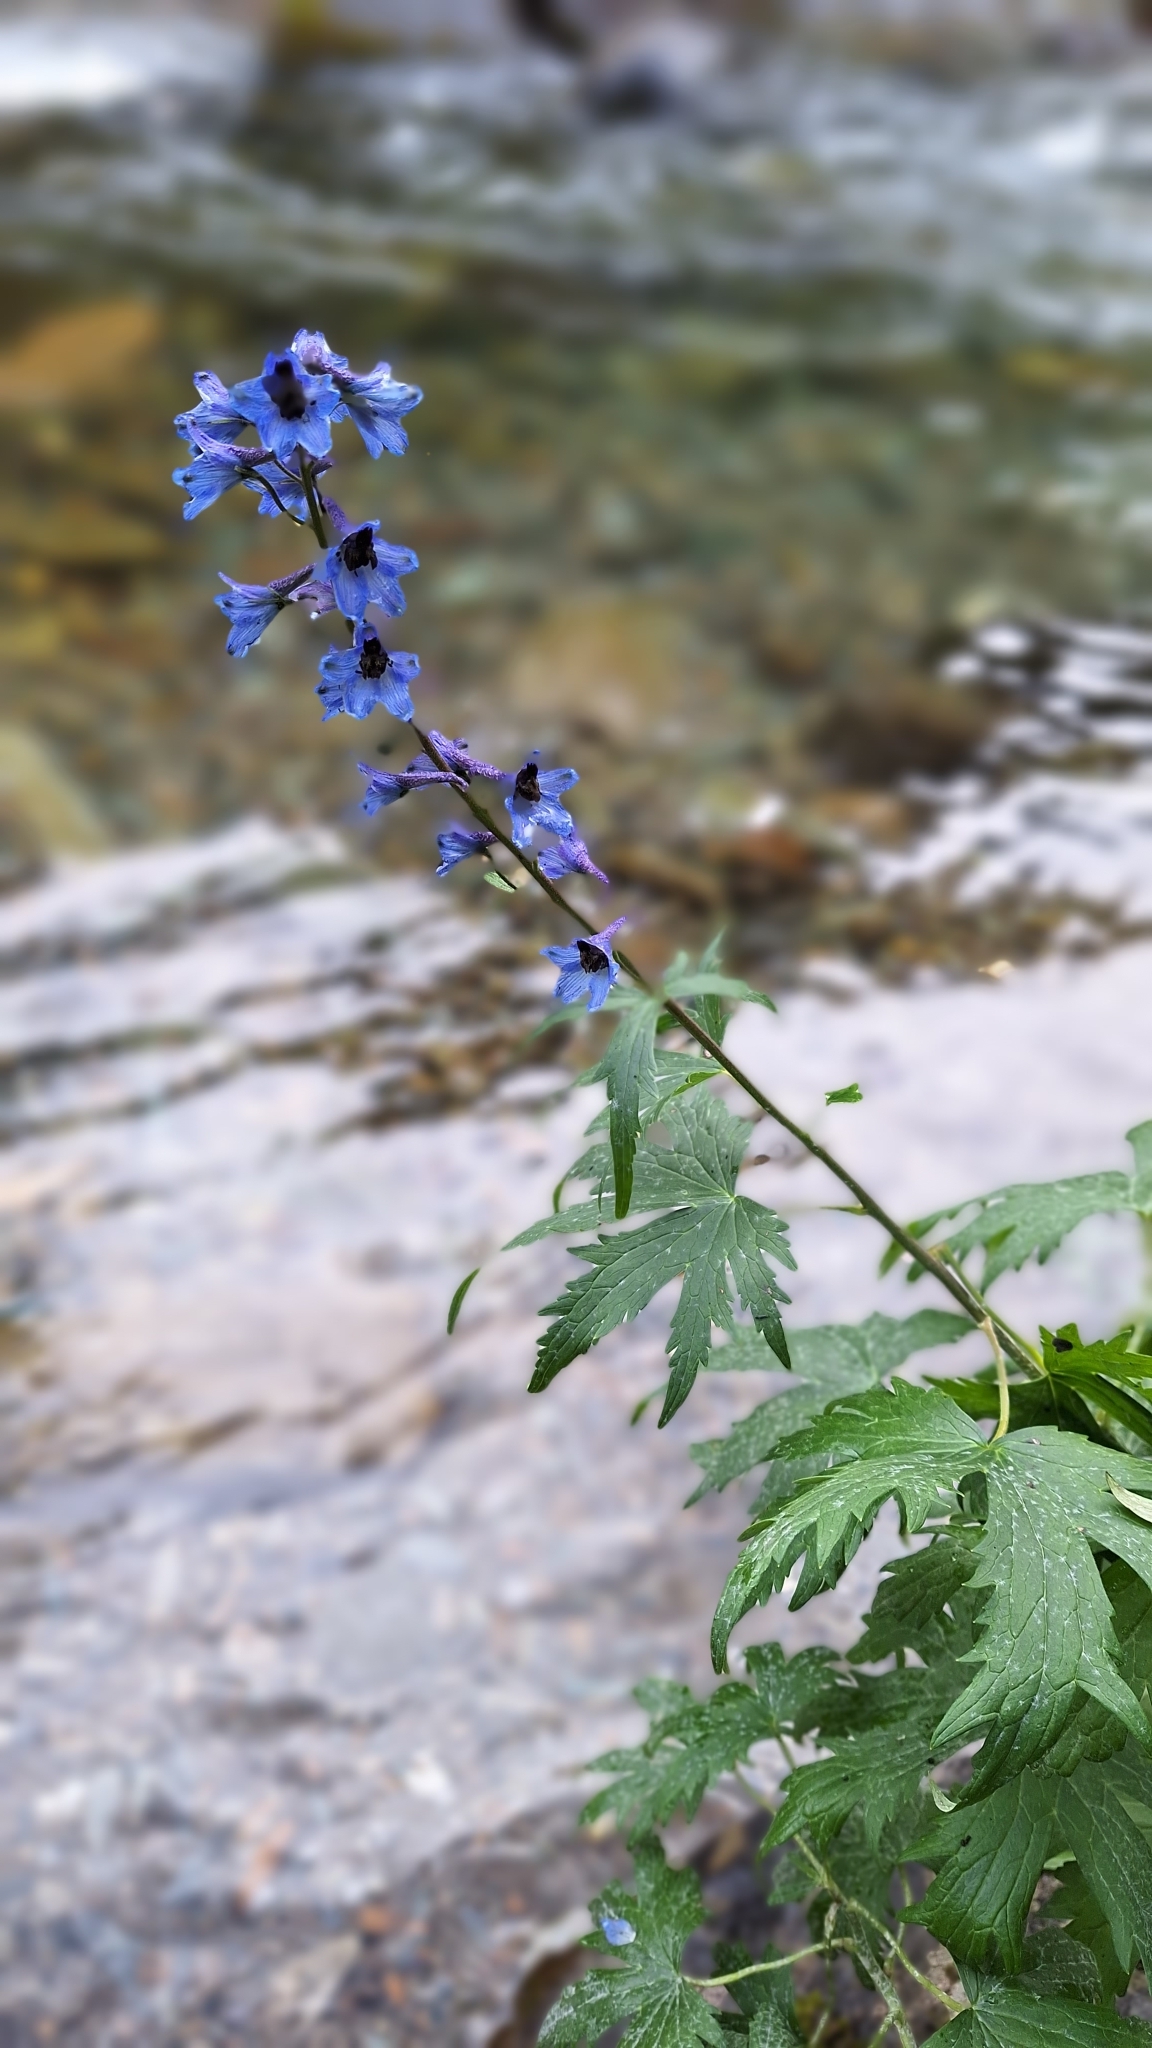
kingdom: Plantae
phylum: Tracheophyta
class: Magnoliopsida
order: Ranunculales
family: Ranunculaceae
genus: Delphinium
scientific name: Delphinium elatum
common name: Candle larkspur
